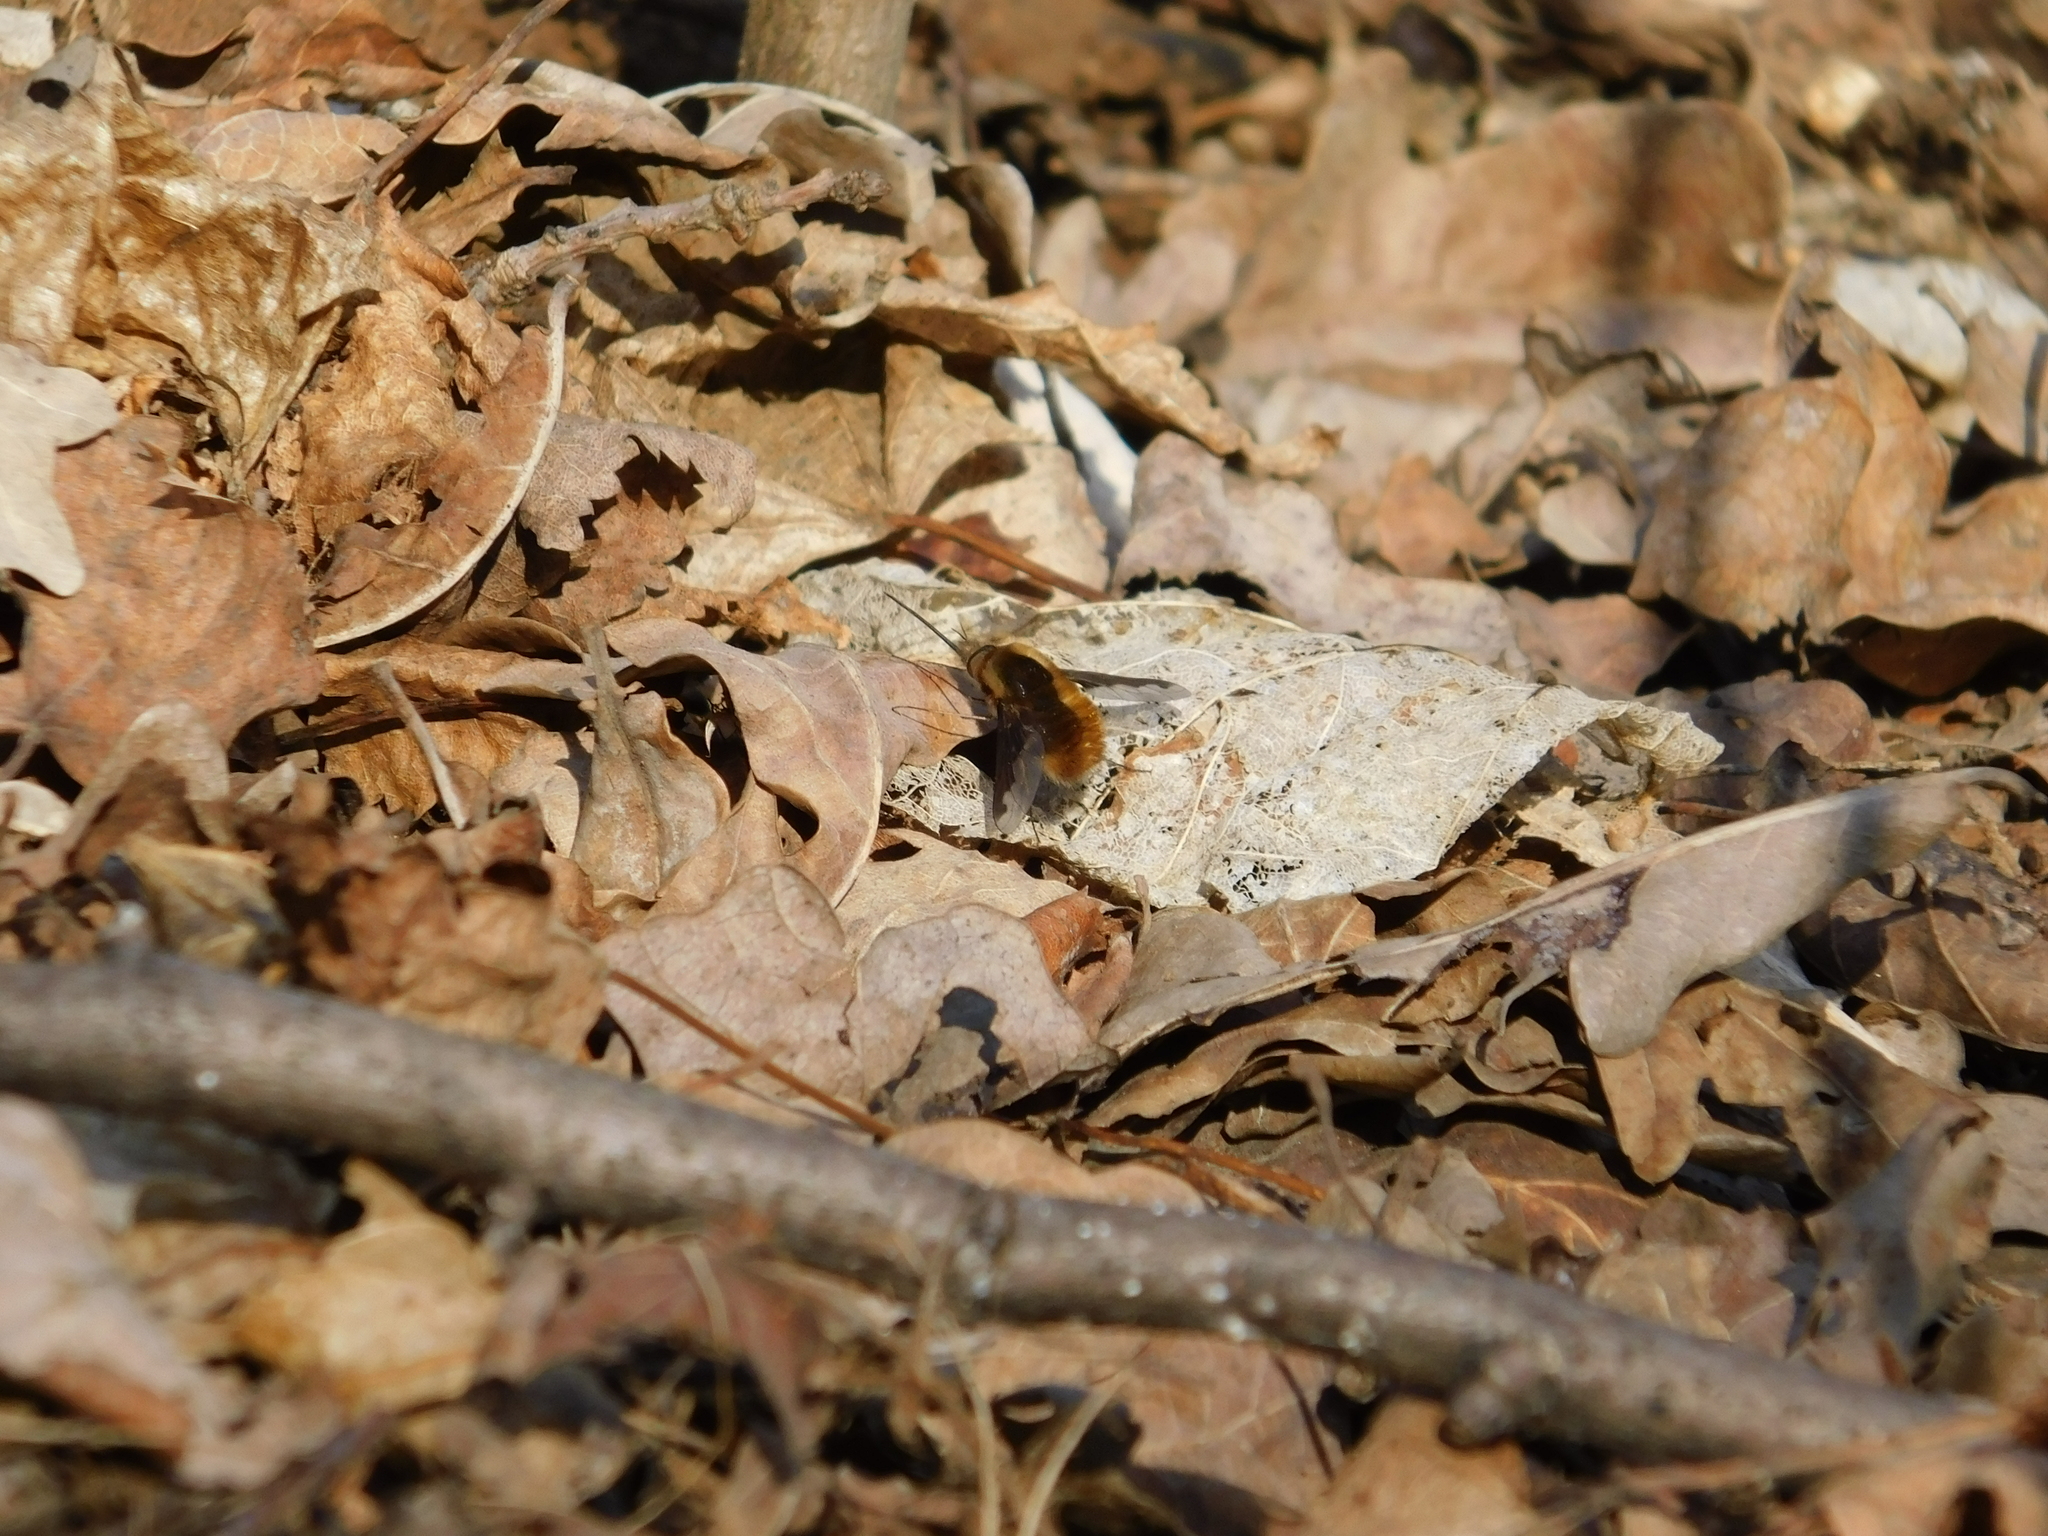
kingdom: Animalia
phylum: Arthropoda
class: Insecta
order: Diptera
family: Bombyliidae
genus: Bombylius
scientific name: Bombylius major
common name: Bee fly
